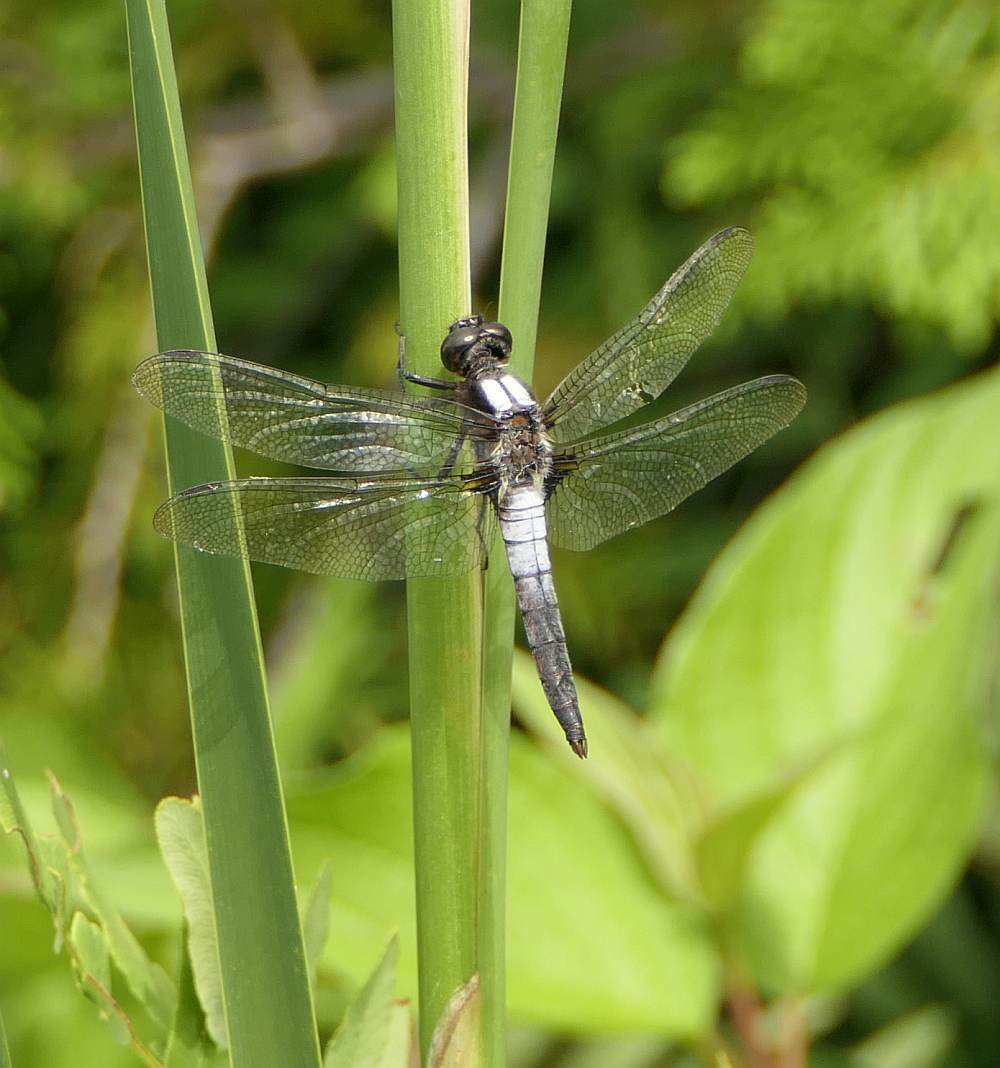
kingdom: Animalia
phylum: Arthropoda
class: Insecta
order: Odonata
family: Libellulidae
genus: Ladona
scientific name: Ladona julia
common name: Chalk-fronted corporal
